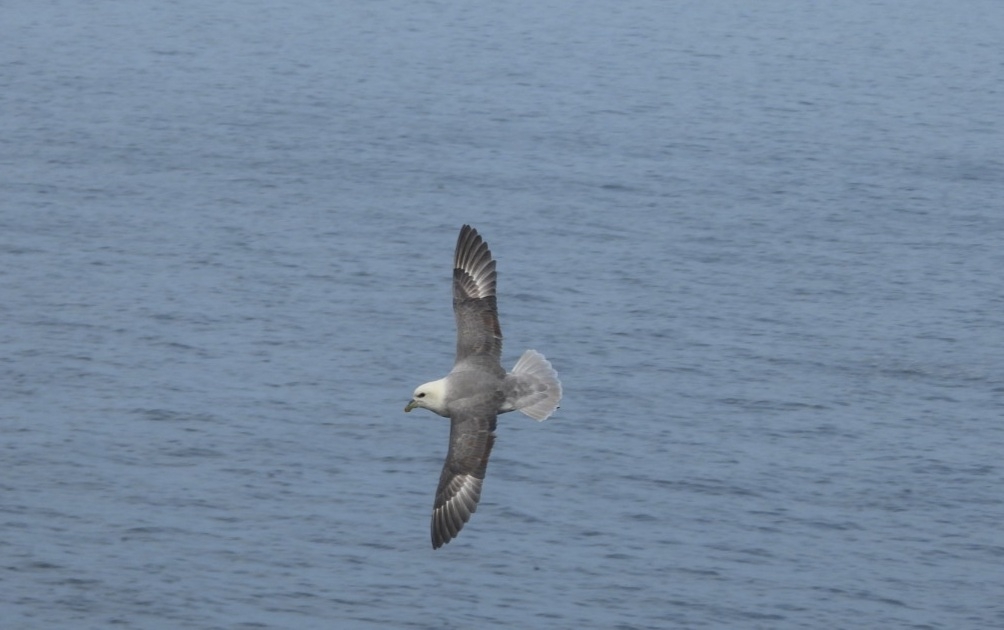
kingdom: Animalia
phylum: Chordata
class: Aves
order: Procellariiformes
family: Procellariidae
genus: Fulmarus
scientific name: Fulmarus glacialis
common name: Northern fulmar
